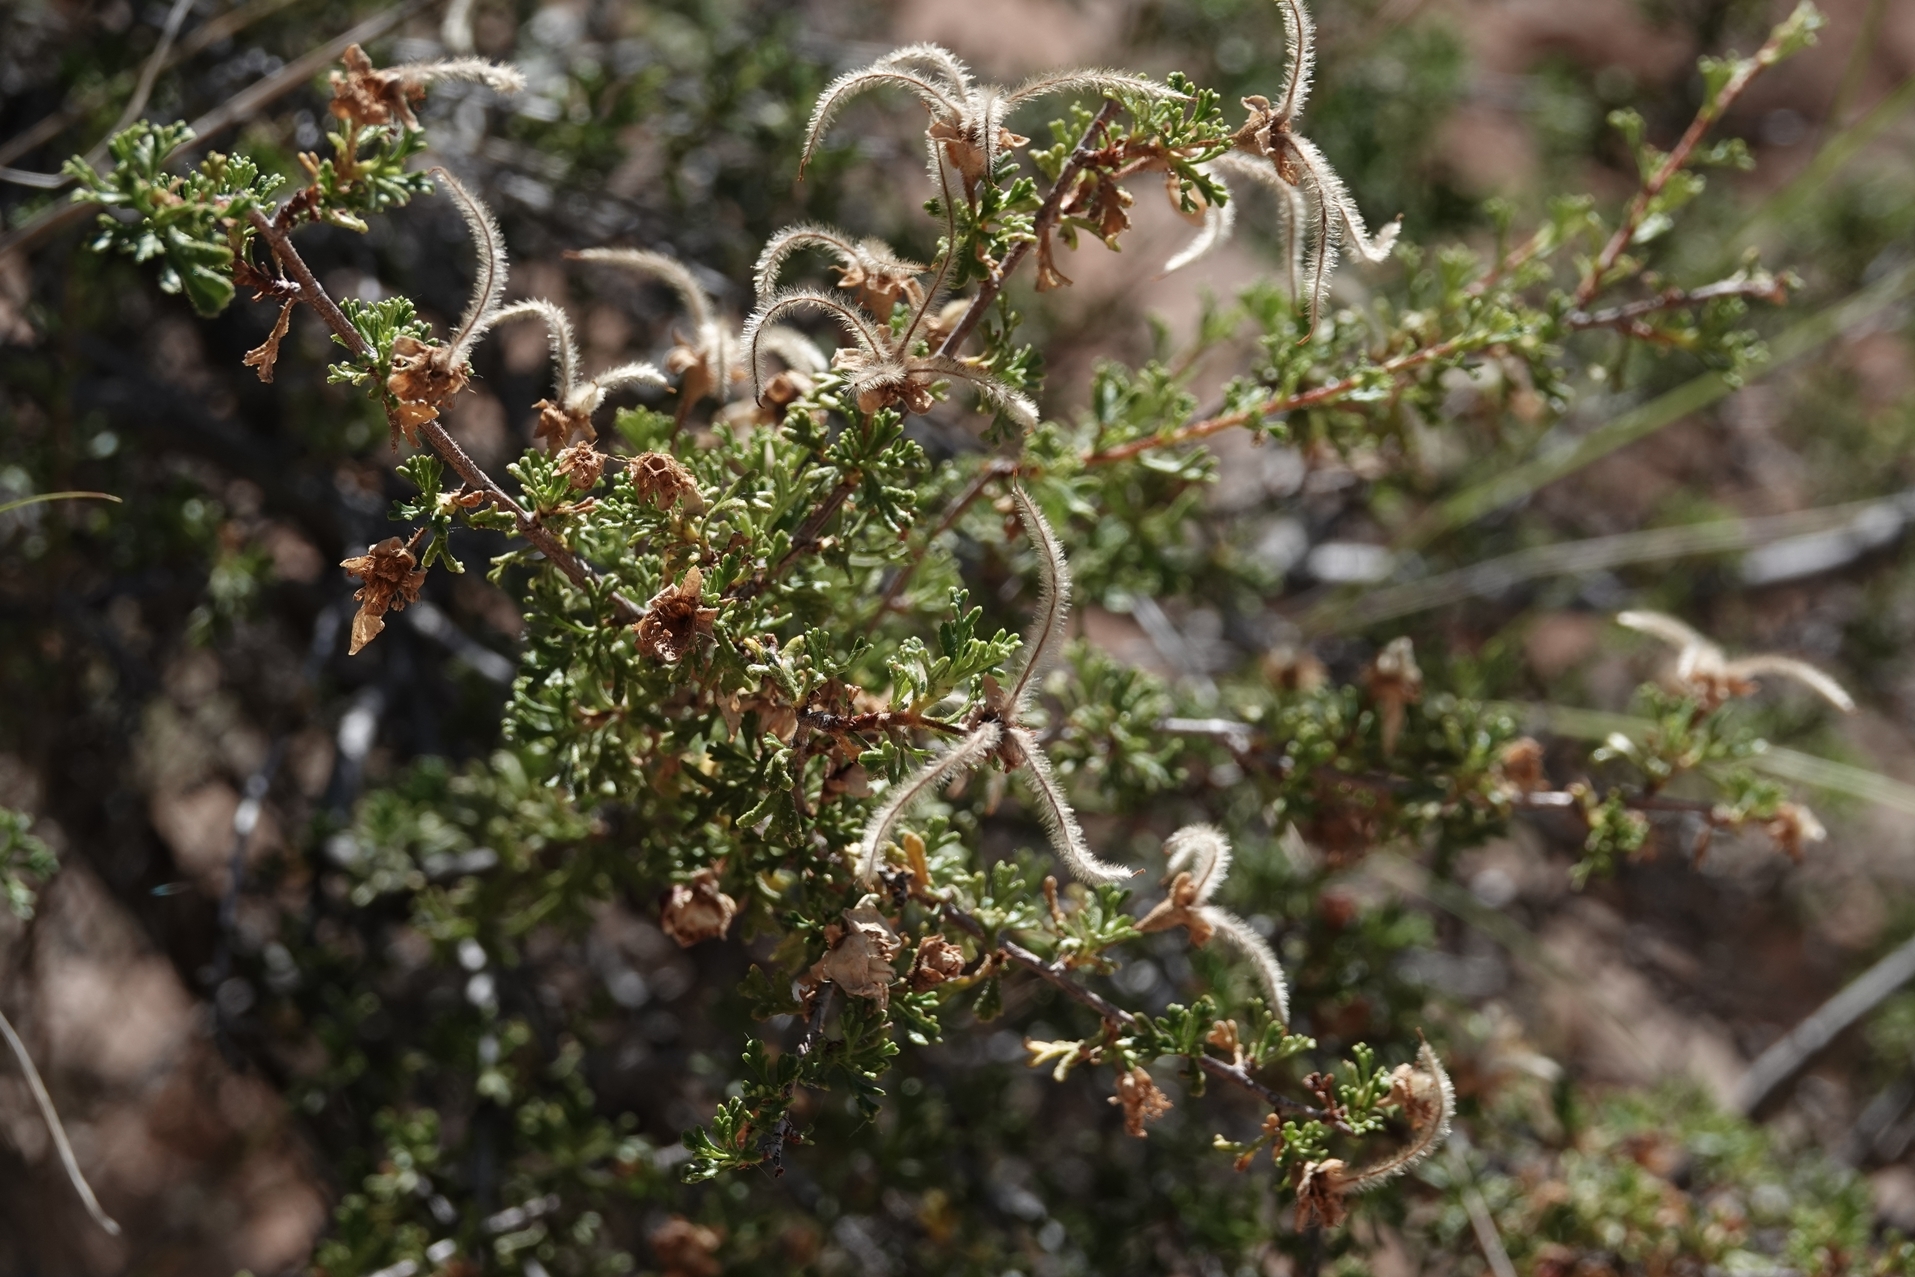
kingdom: Plantae
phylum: Tracheophyta
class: Magnoliopsida
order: Rosales
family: Rosaceae
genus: Purshia
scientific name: Purshia stansburiana
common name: Stansbury's cliffrose
